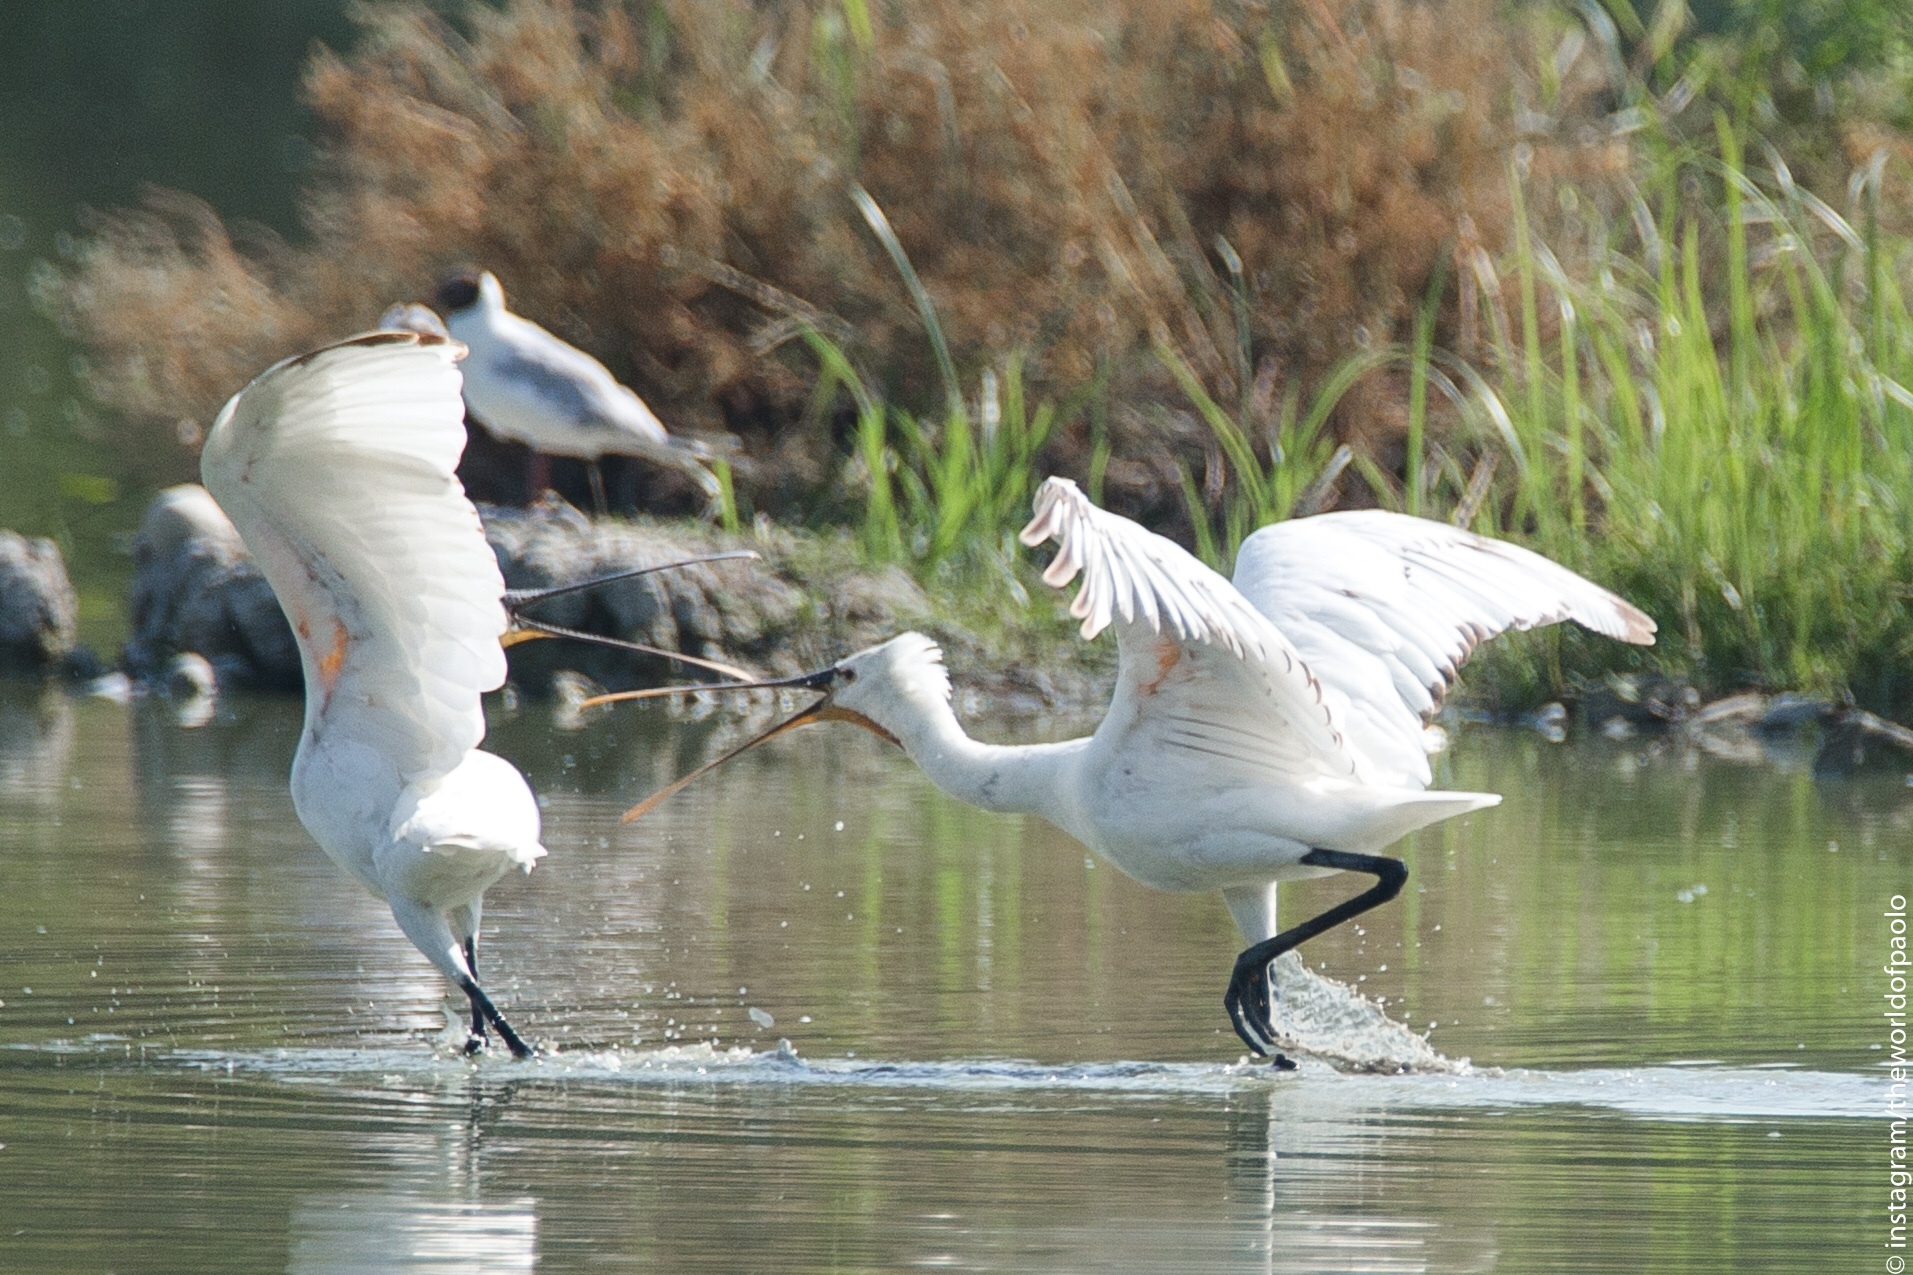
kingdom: Animalia
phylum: Chordata
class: Aves
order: Pelecaniformes
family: Threskiornithidae
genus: Platalea
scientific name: Platalea leucorodia
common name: Eurasian spoonbill
